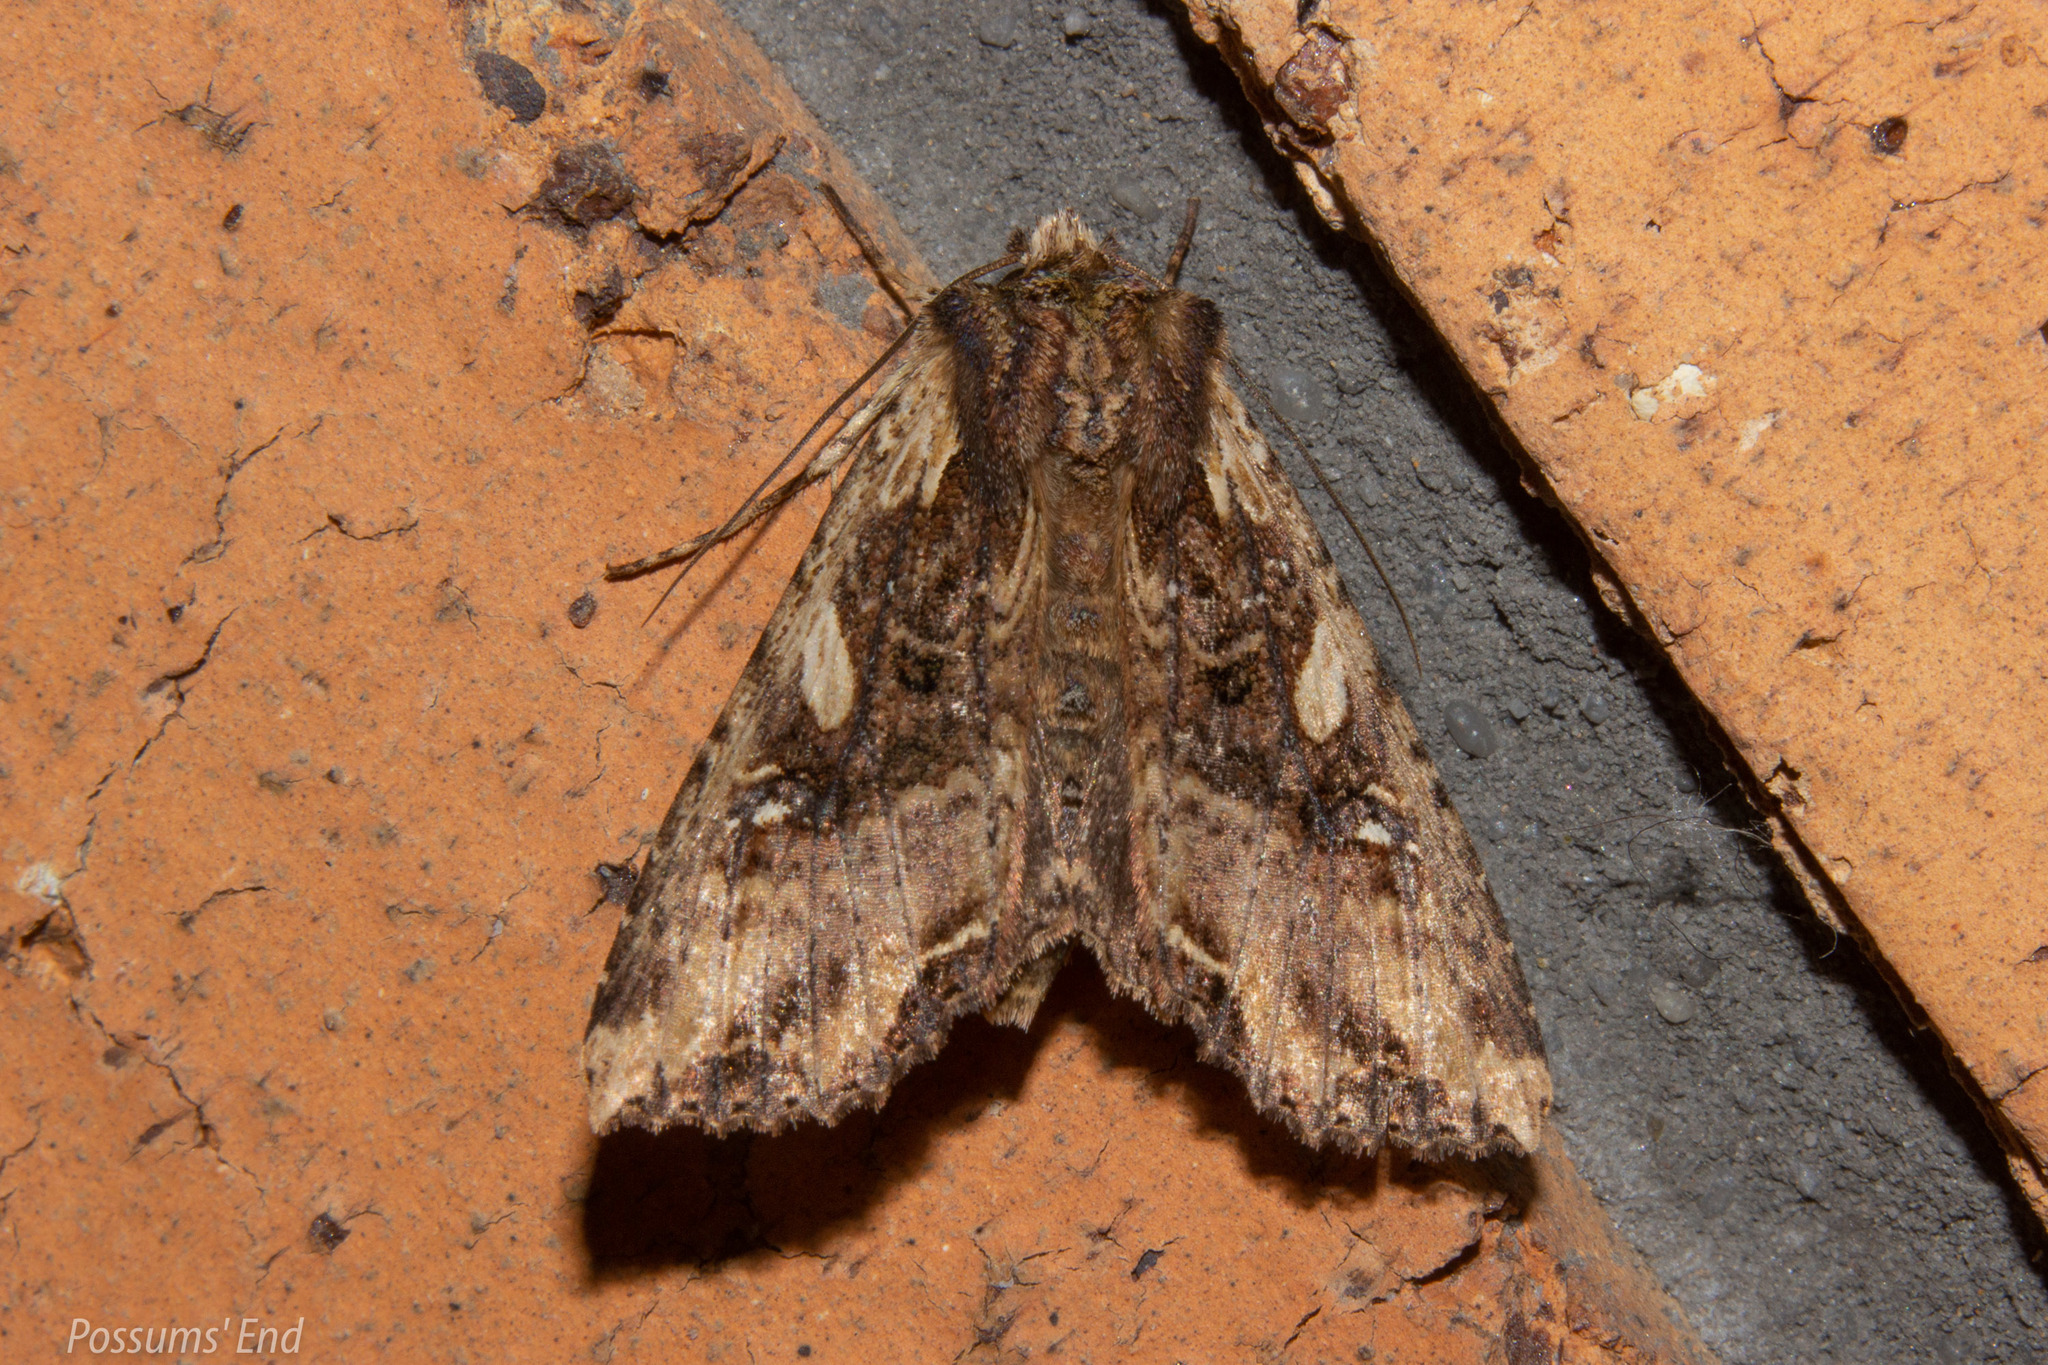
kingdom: Animalia
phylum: Arthropoda
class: Insecta
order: Lepidoptera
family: Noctuidae
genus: Meterana
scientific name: Meterana stipata
